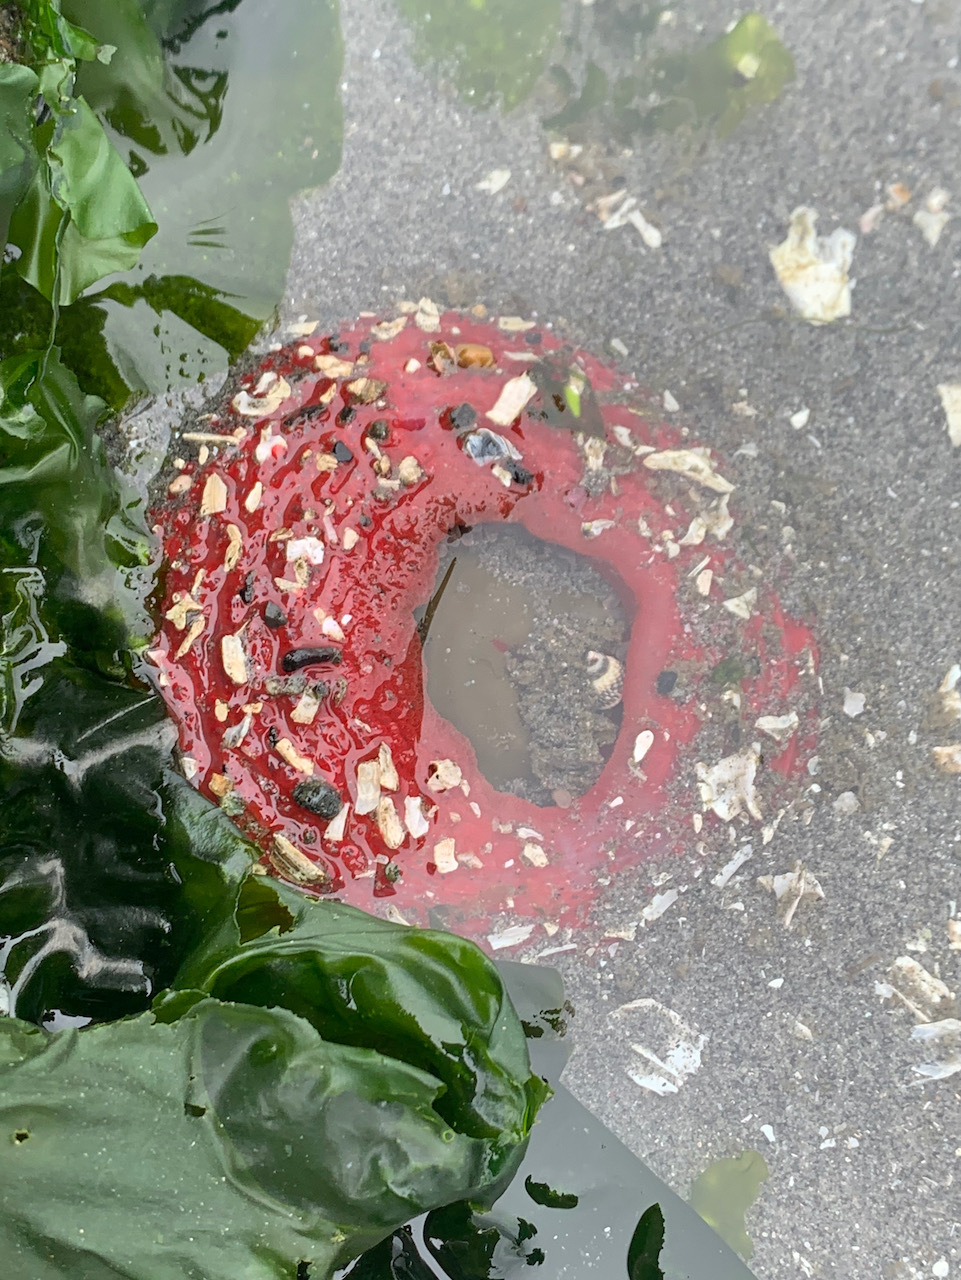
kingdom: Animalia
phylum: Cnidaria
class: Anthozoa
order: Actiniaria
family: Actiniidae
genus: Urticina
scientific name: Urticina clandestina
